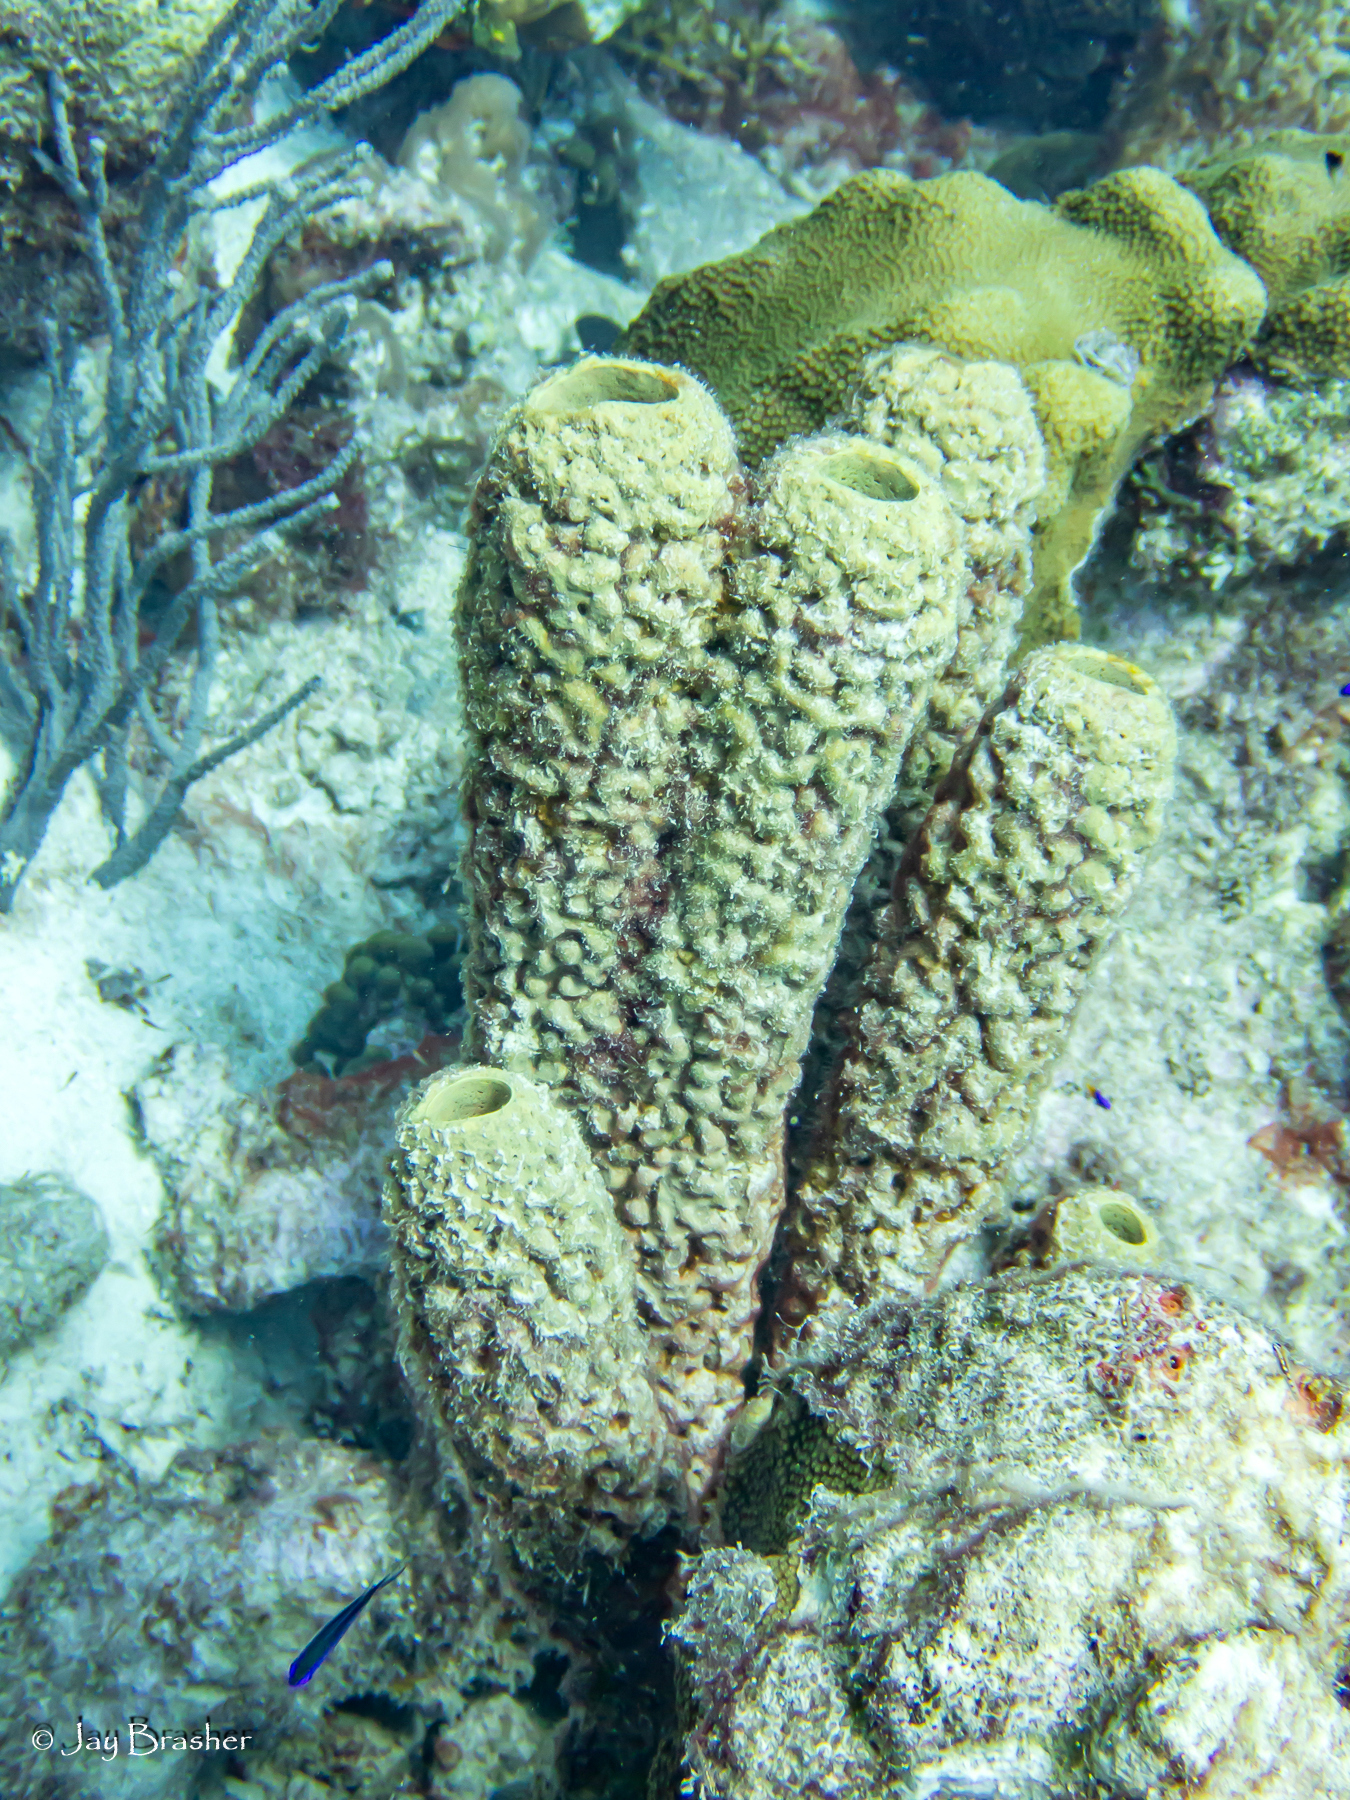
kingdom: Animalia
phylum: Porifera
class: Demospongiae
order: Verongiida
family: Aplysinidae
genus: Aplysina
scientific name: Aplysina archeri
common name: Stove-pipe sponge
